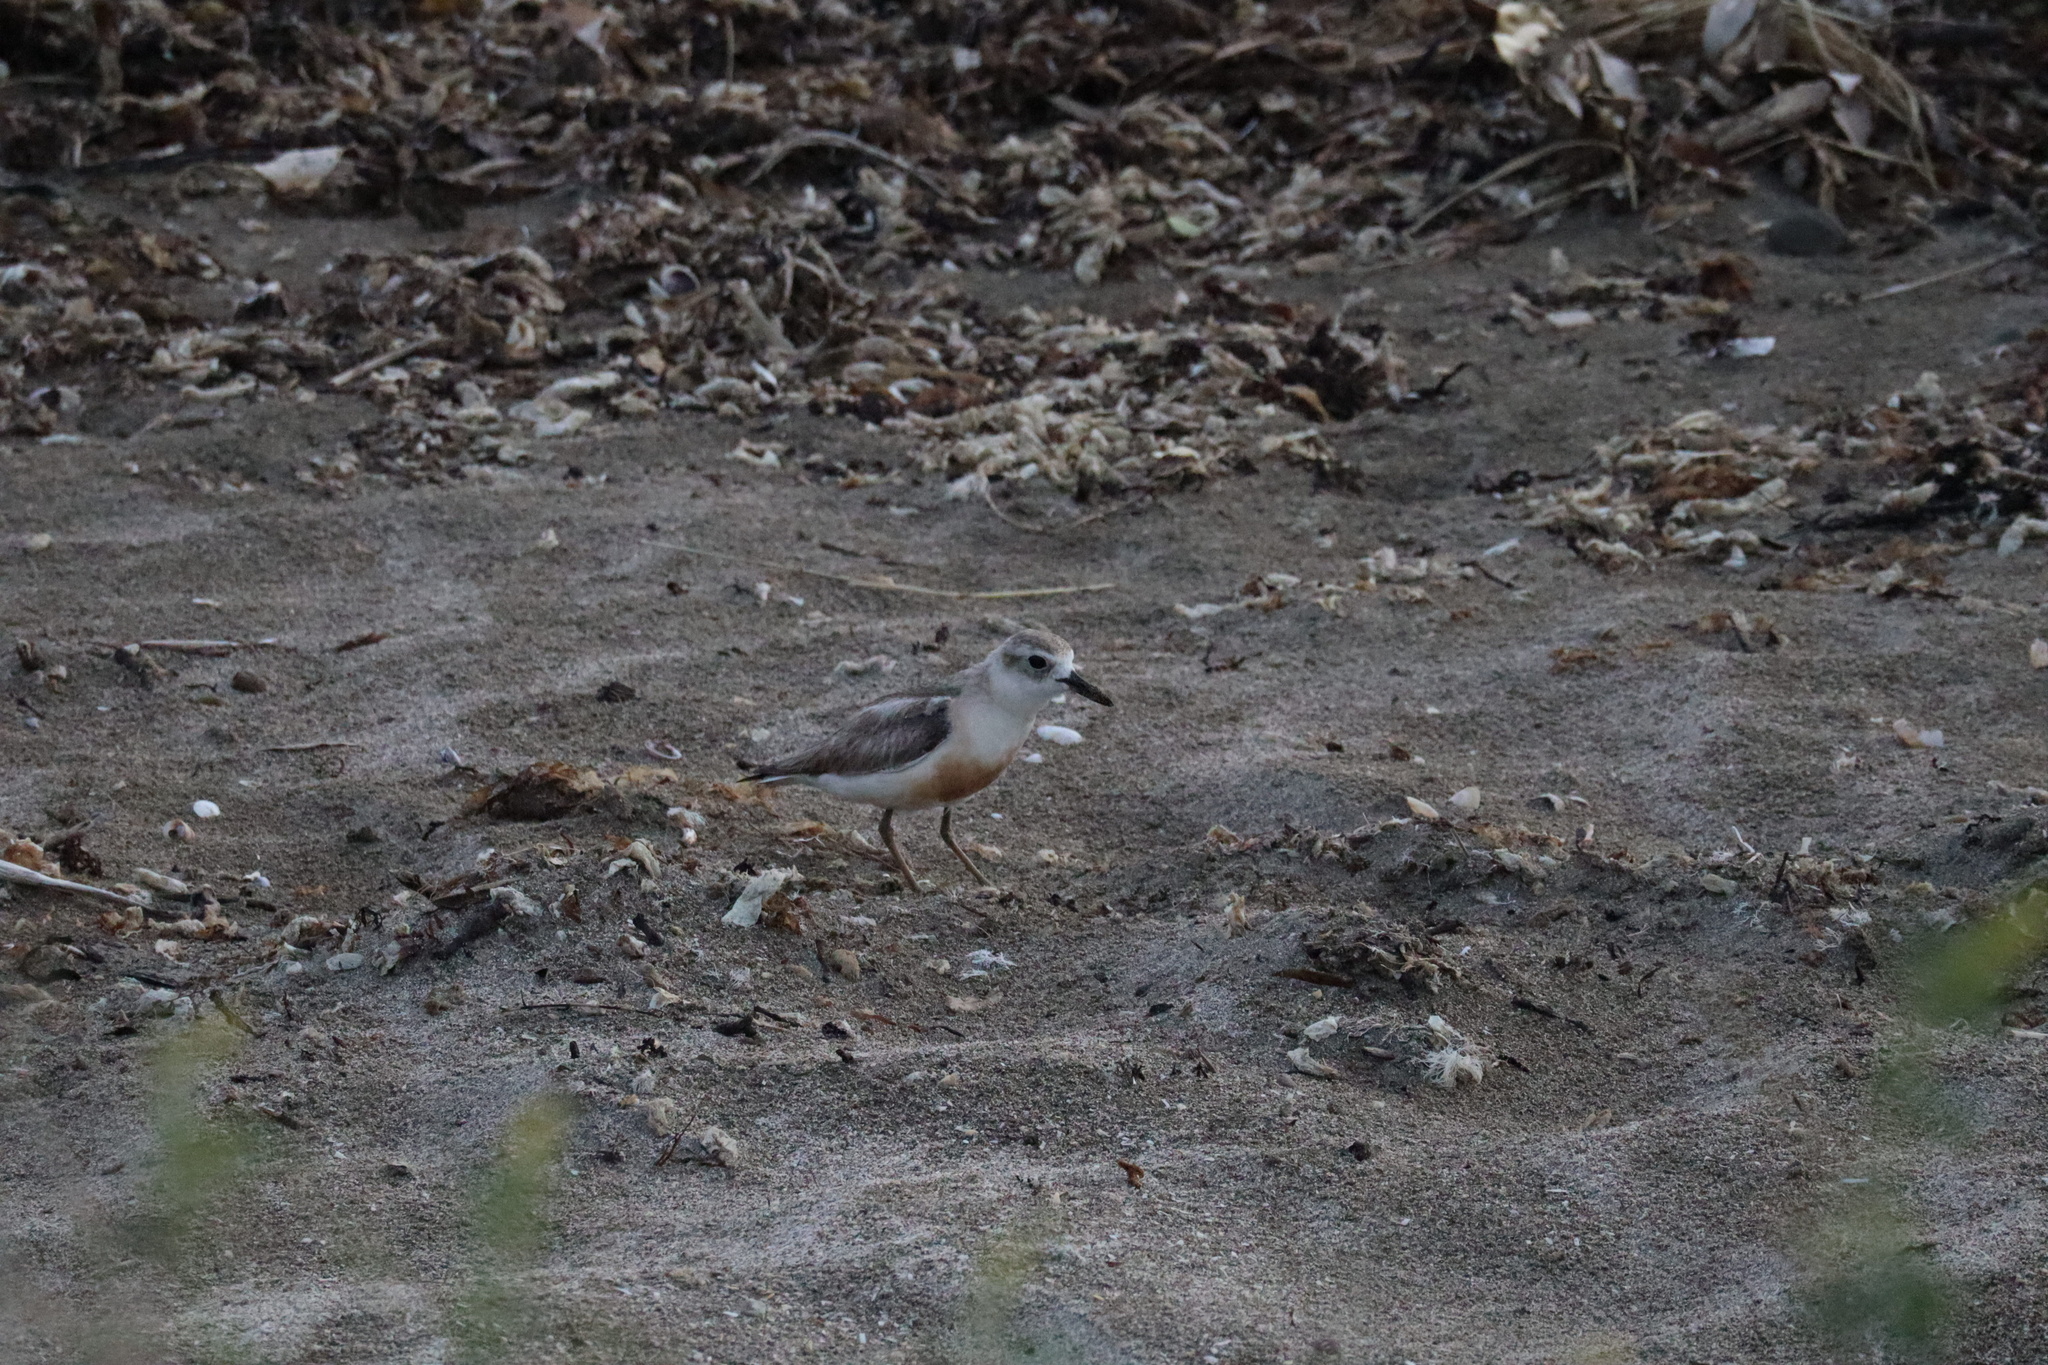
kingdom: Animalia
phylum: Chordata
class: Aves
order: Charadriiformes
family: Charadriidae
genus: Anarhynchus
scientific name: Anarhynchus
